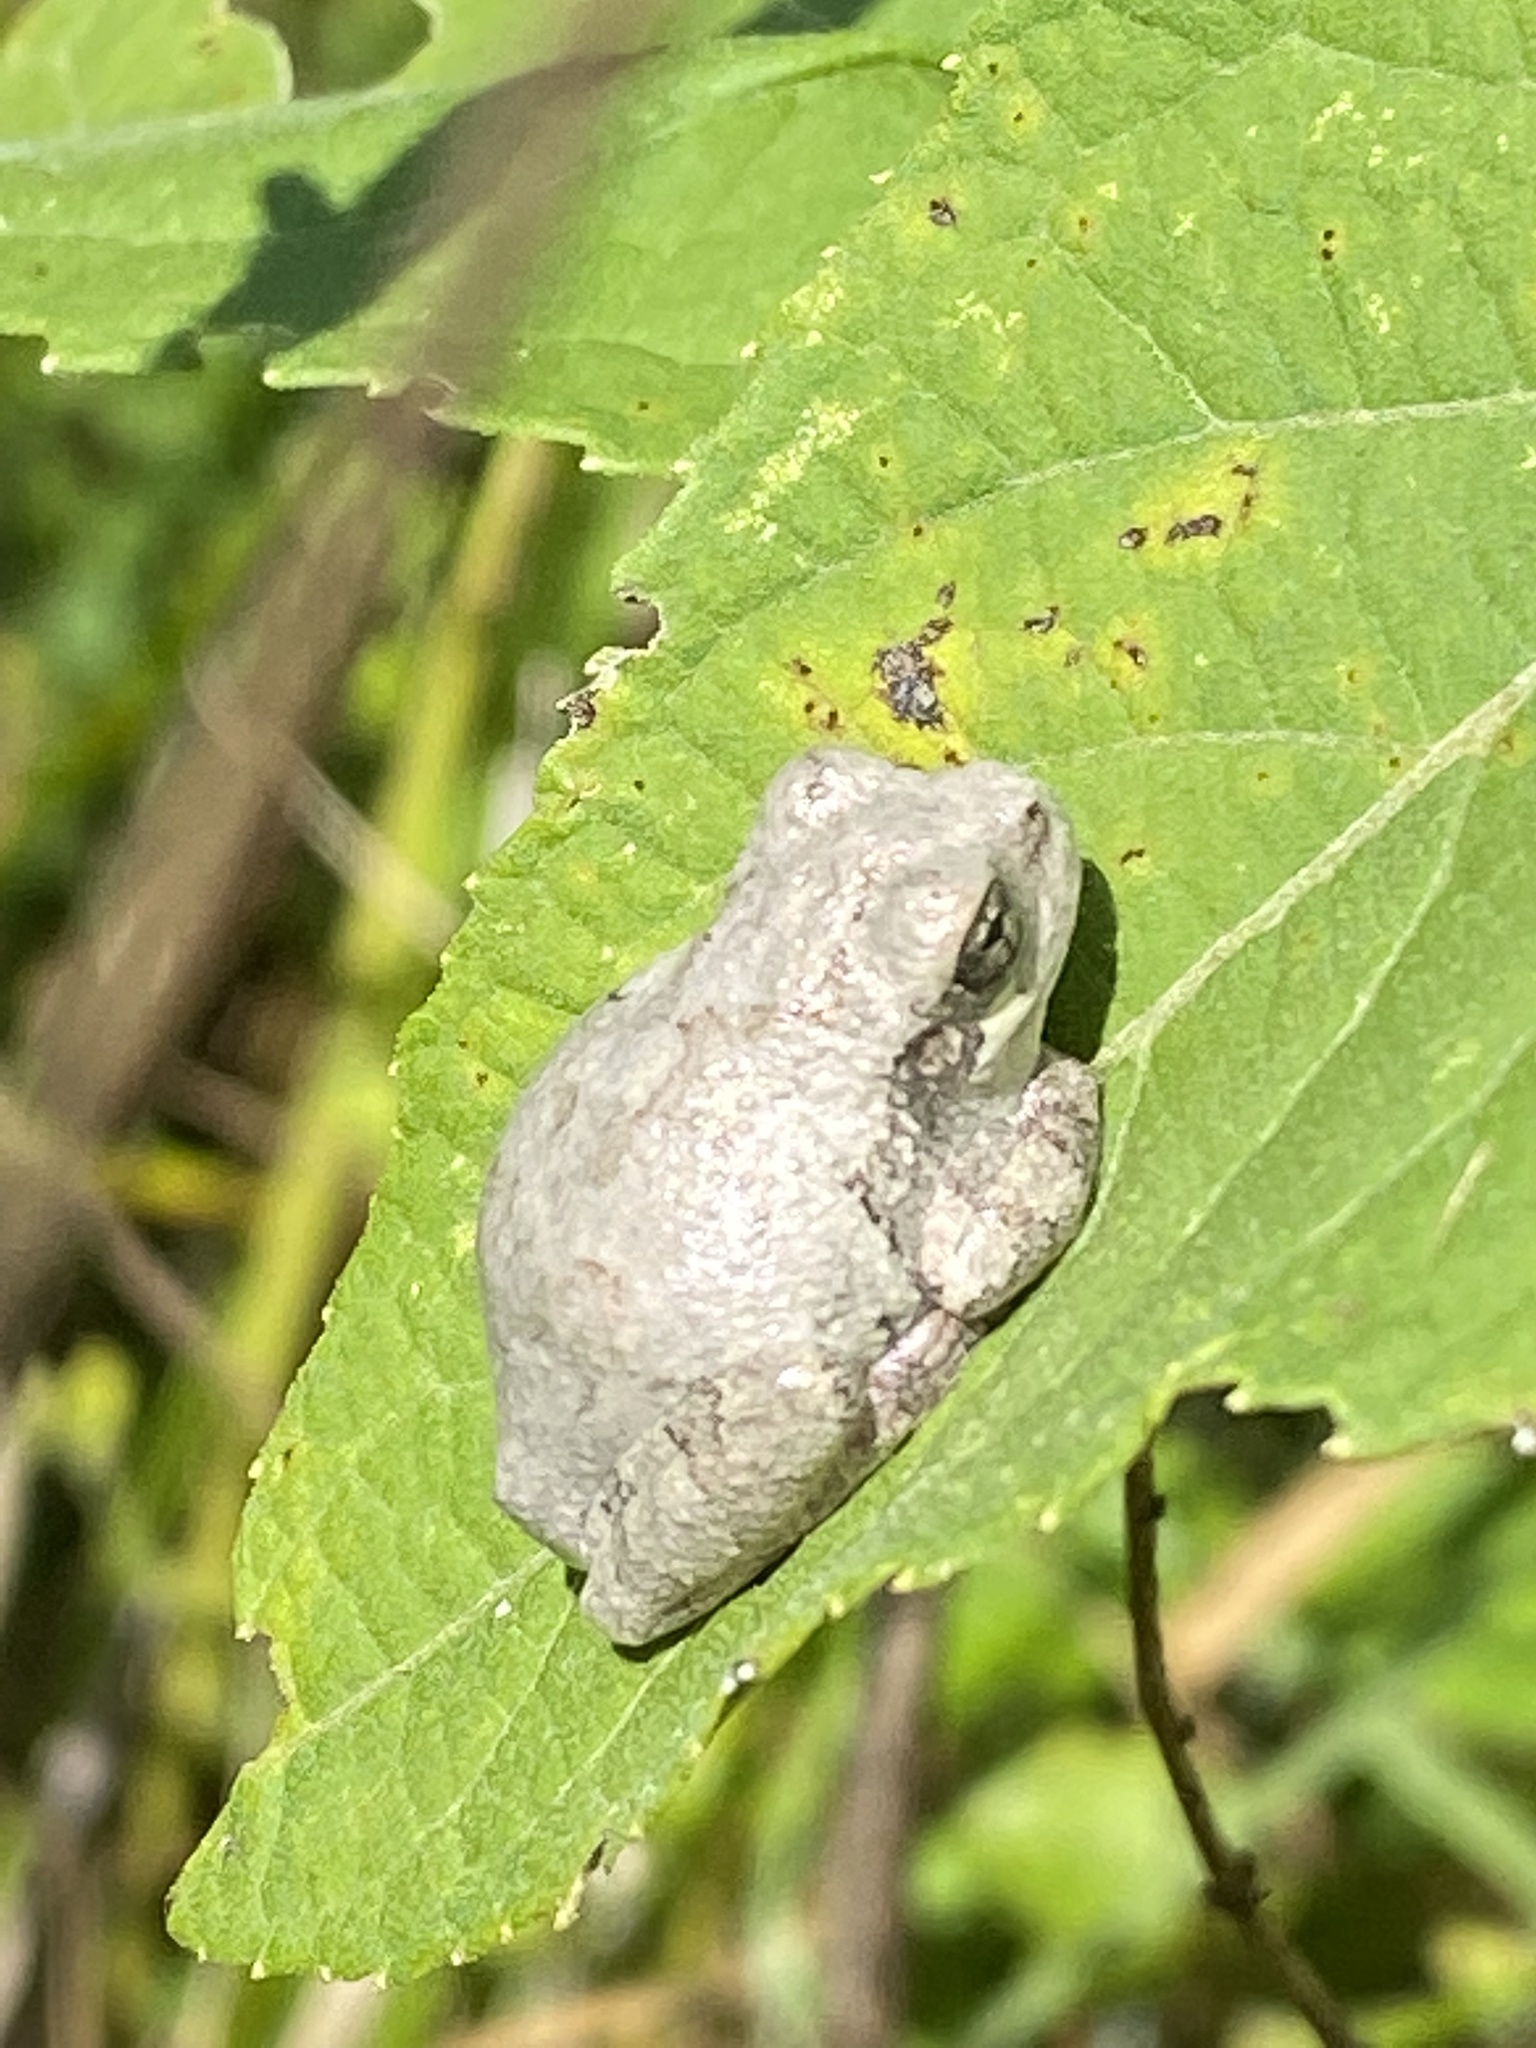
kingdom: Animalia
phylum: Chordata
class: Amphibia
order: Anura
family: Hylidae
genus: Dryophytes
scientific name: Dryophytes chrysoscelis
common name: Cope's gray treefrog
